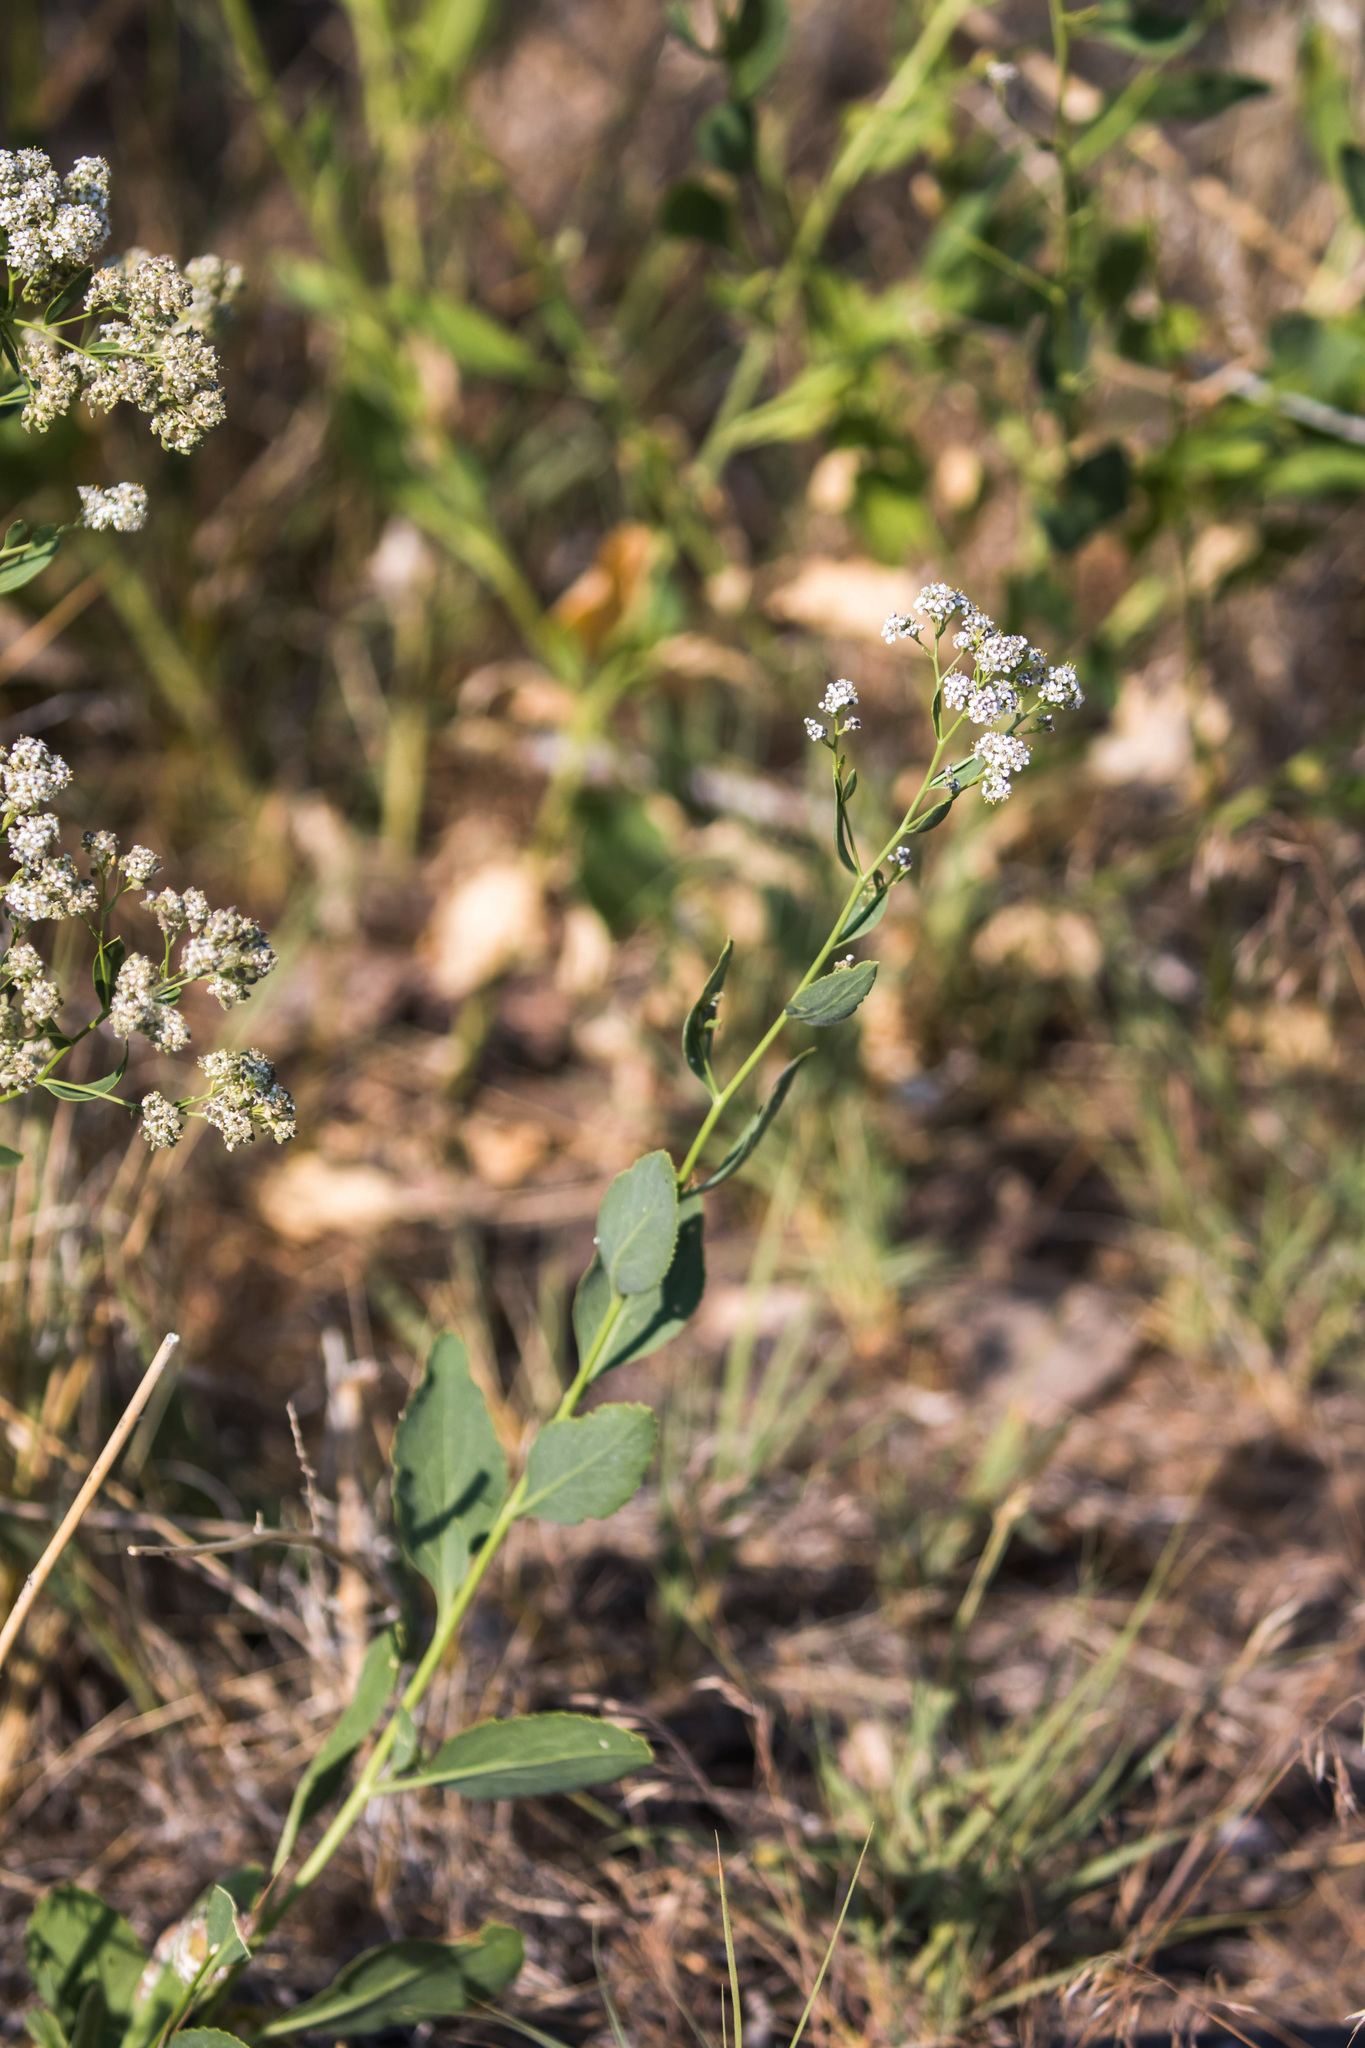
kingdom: Plantae
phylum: Tracheophyta
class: Magnoliopsida
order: Brassicales
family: Brassicaceae
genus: Lepidium
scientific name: Lepidium latifolium
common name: Dittander
